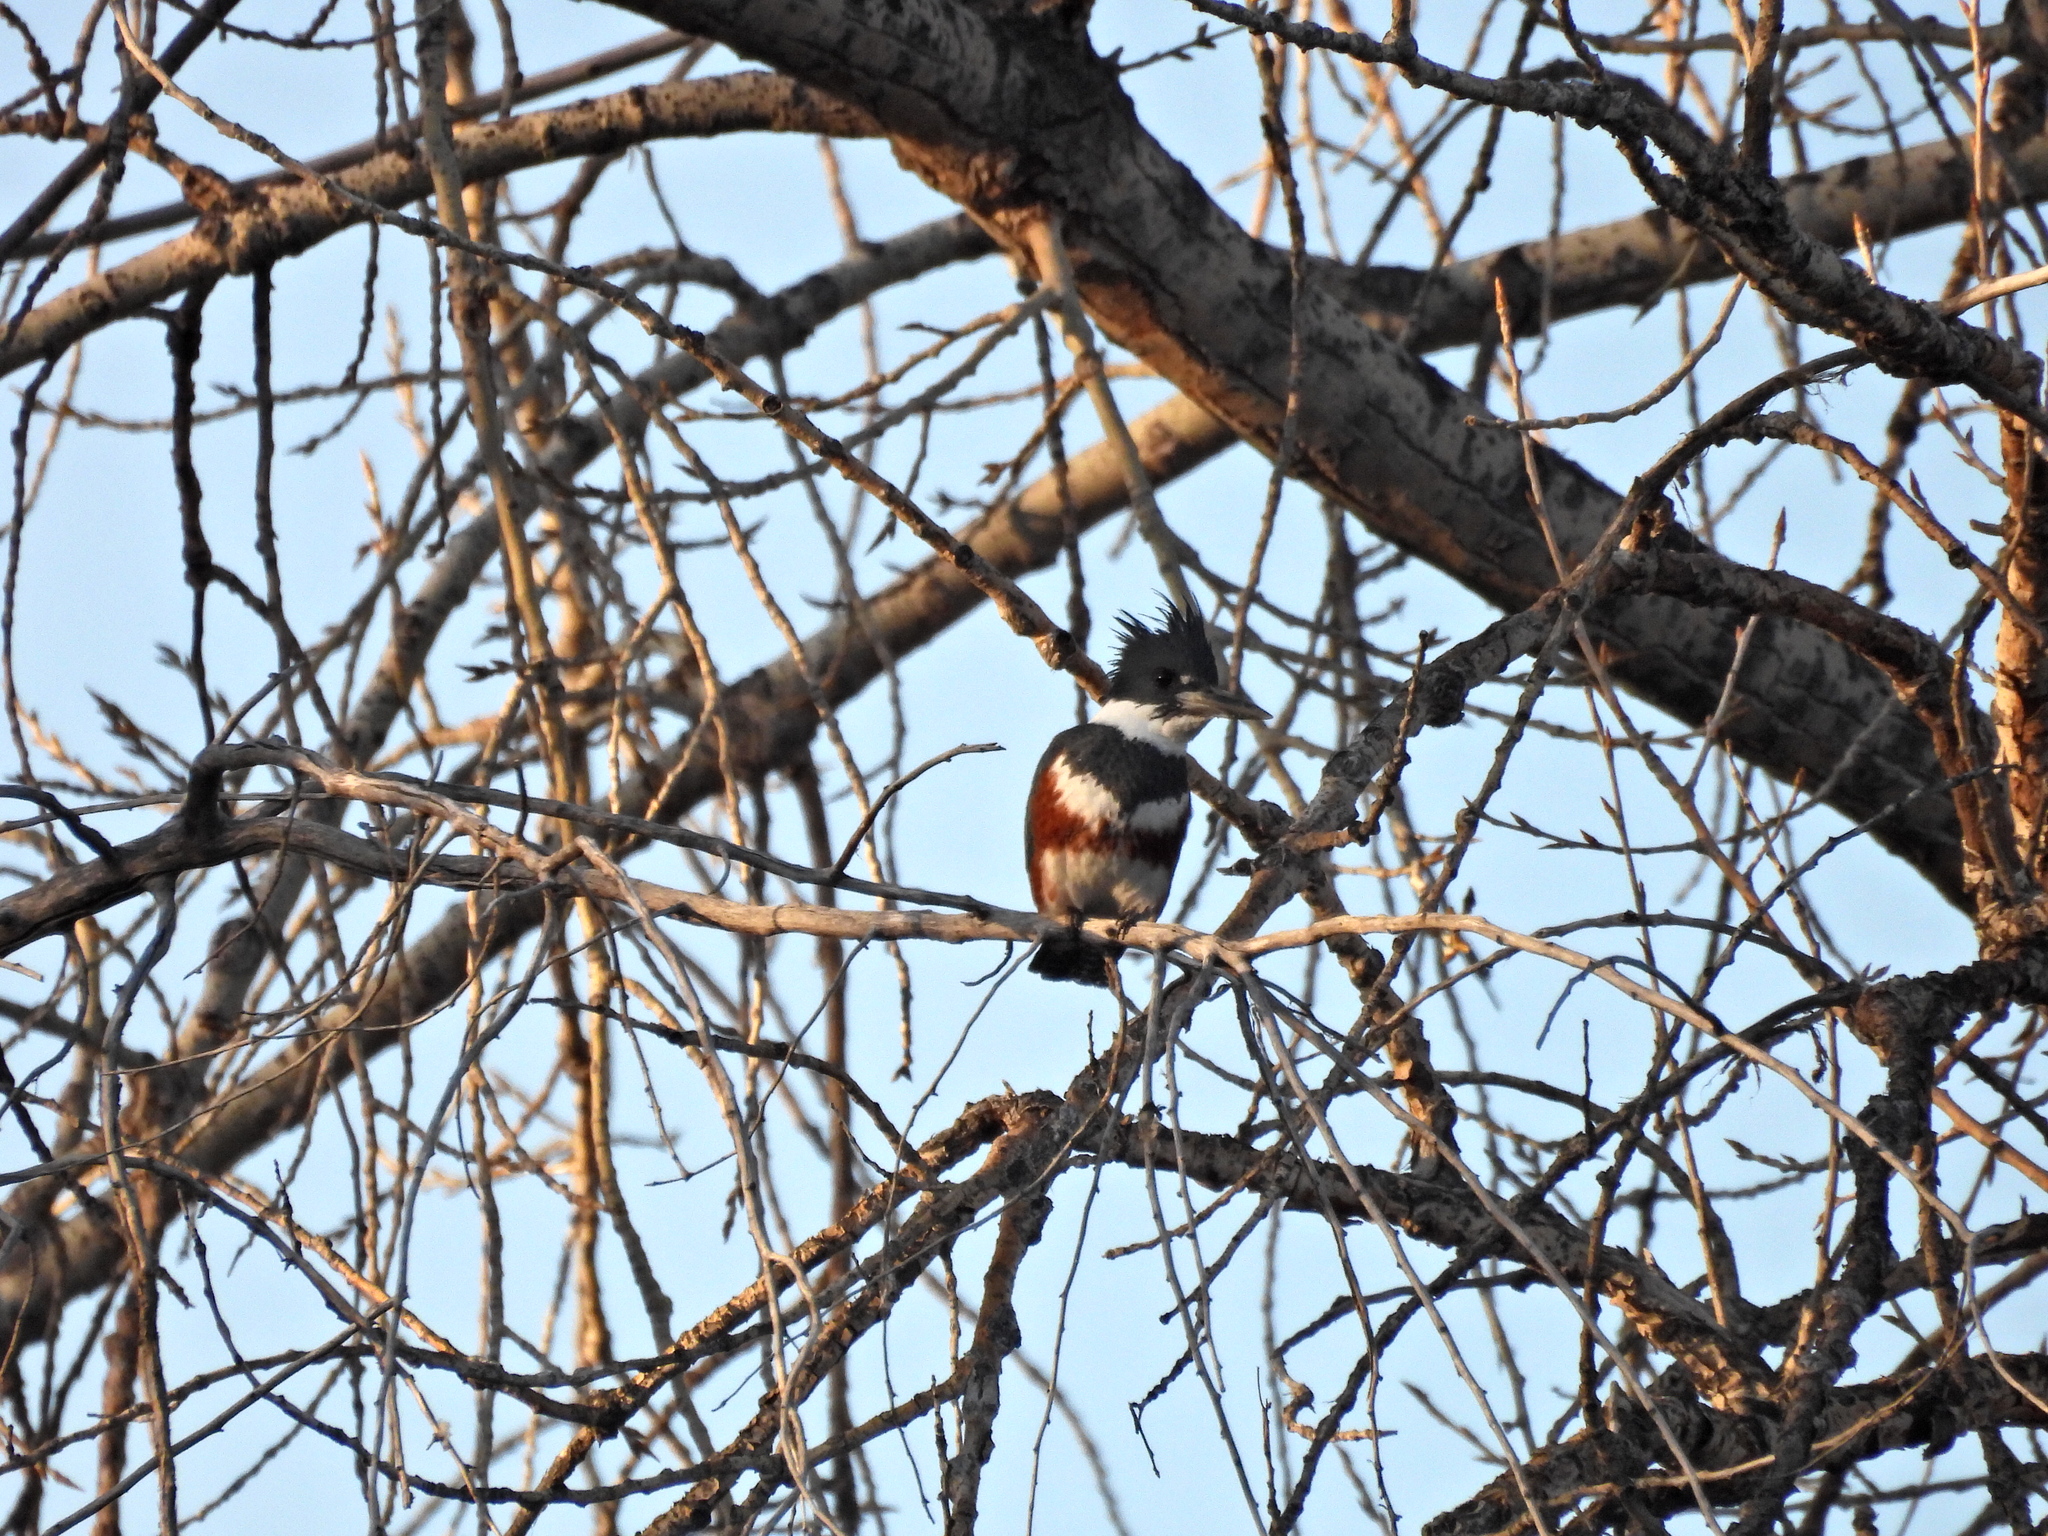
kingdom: Animalia
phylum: Chordata
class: Aves
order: Coraciiformes
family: Alcedinidae
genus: Megaceryle
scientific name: Megaceryle alcyon
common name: Belted kingfisher
